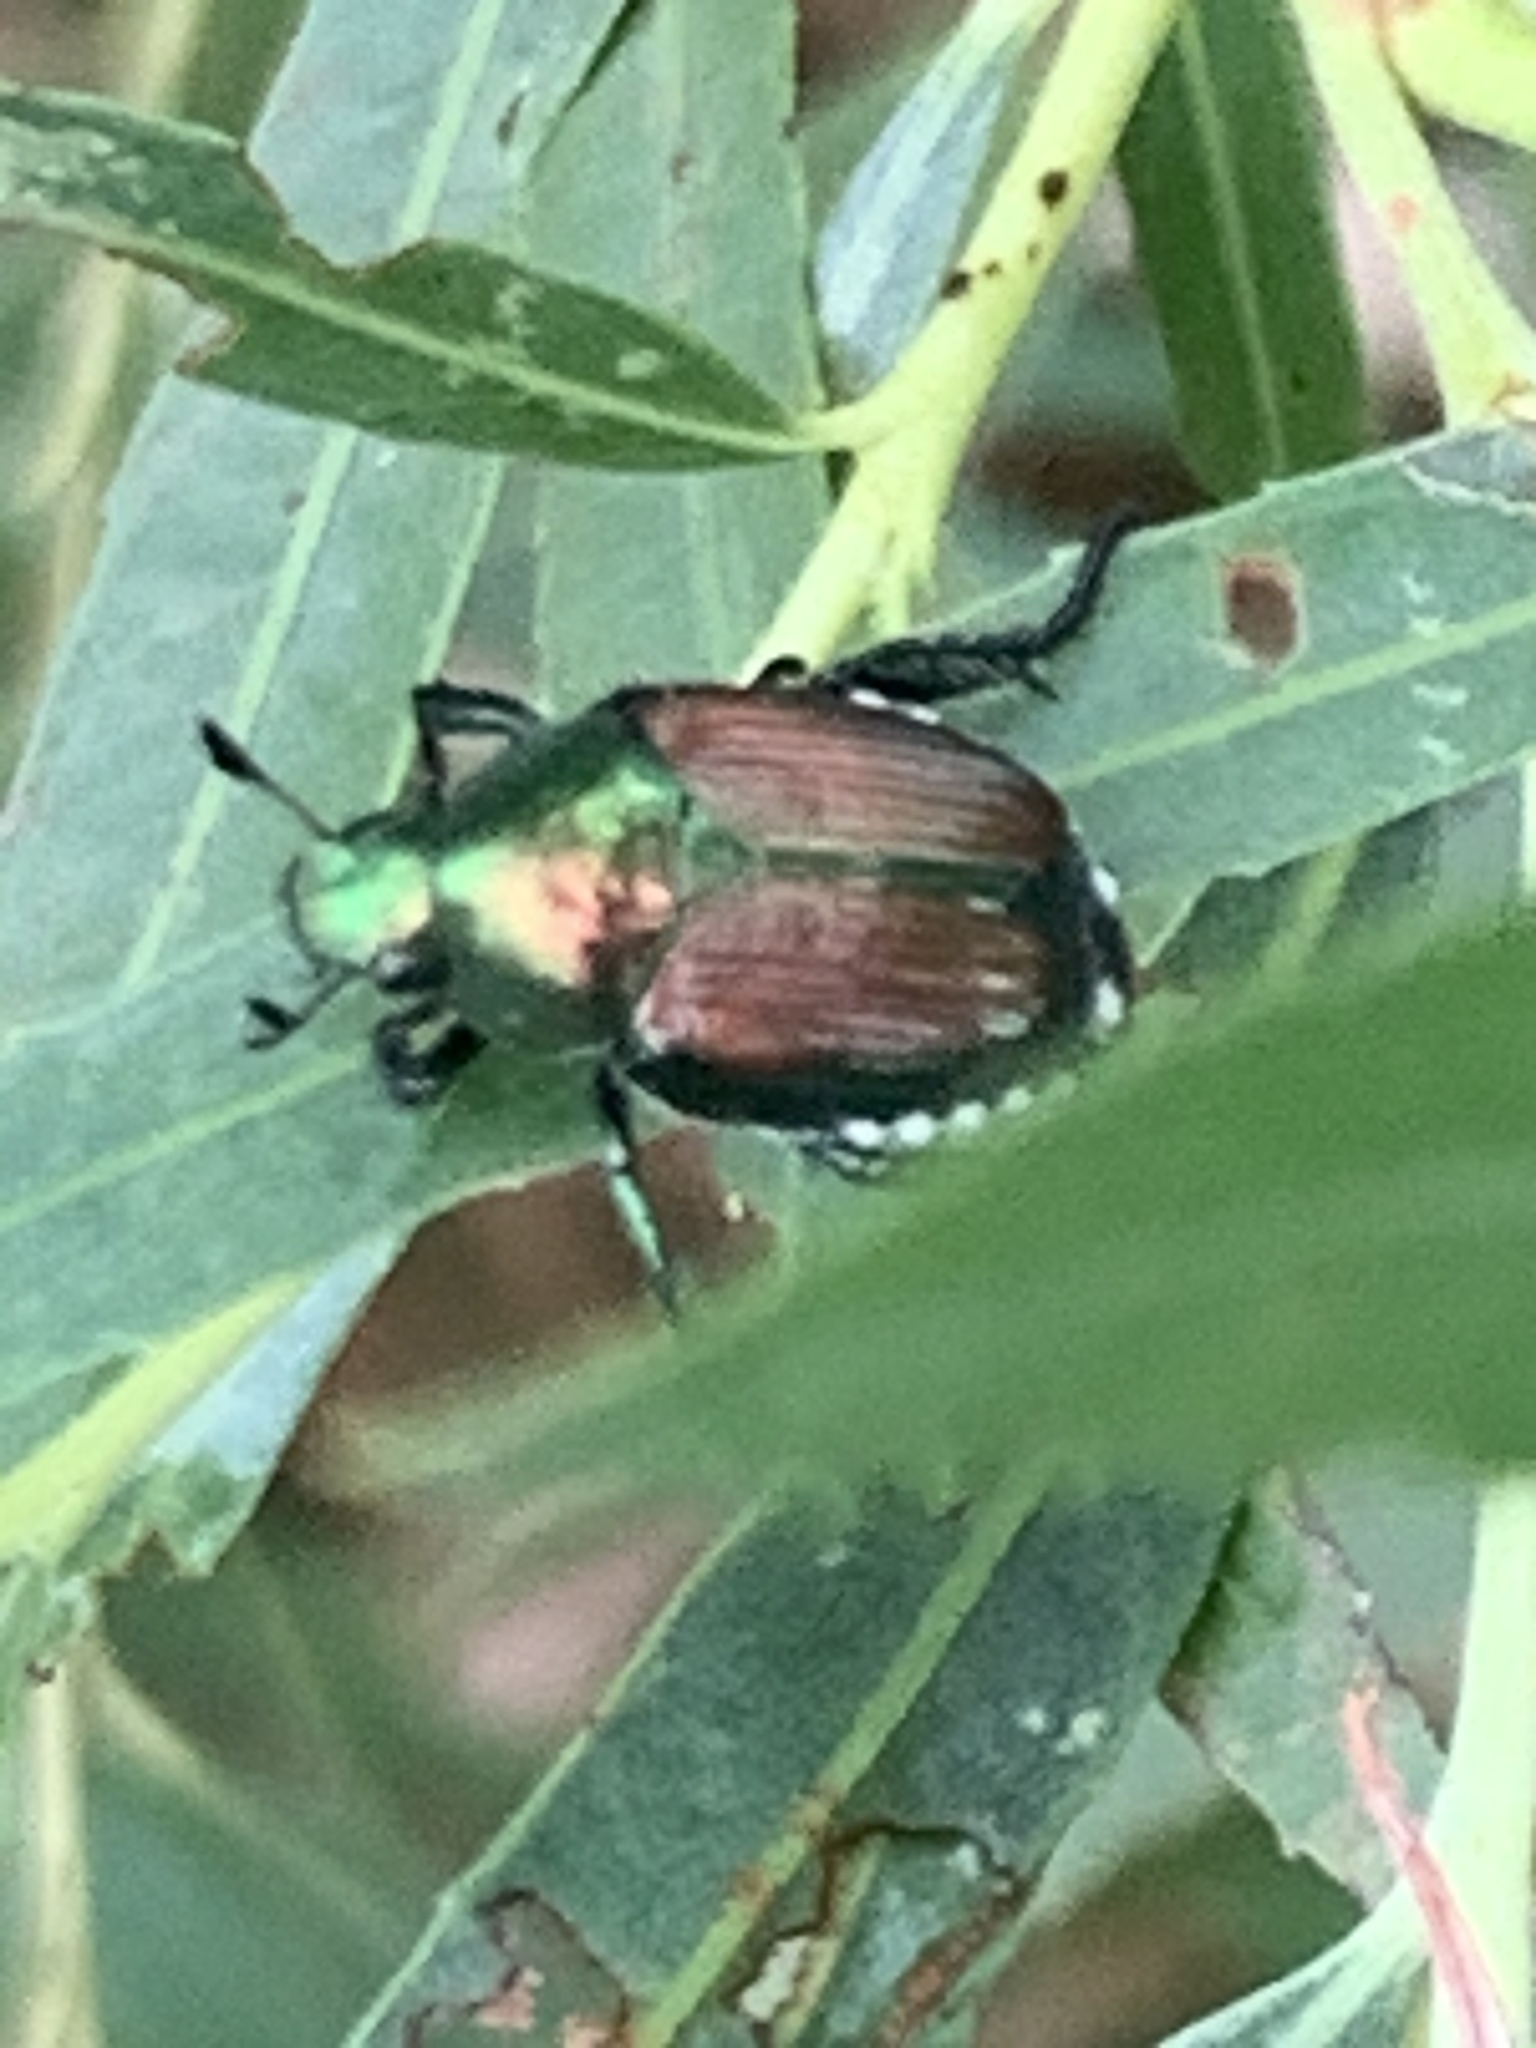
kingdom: Animalia
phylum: Arthropoda
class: Insecta
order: Coleoptera
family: Scarabaeidae
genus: Popillia
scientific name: Popillia japonica
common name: Japanese beetle
